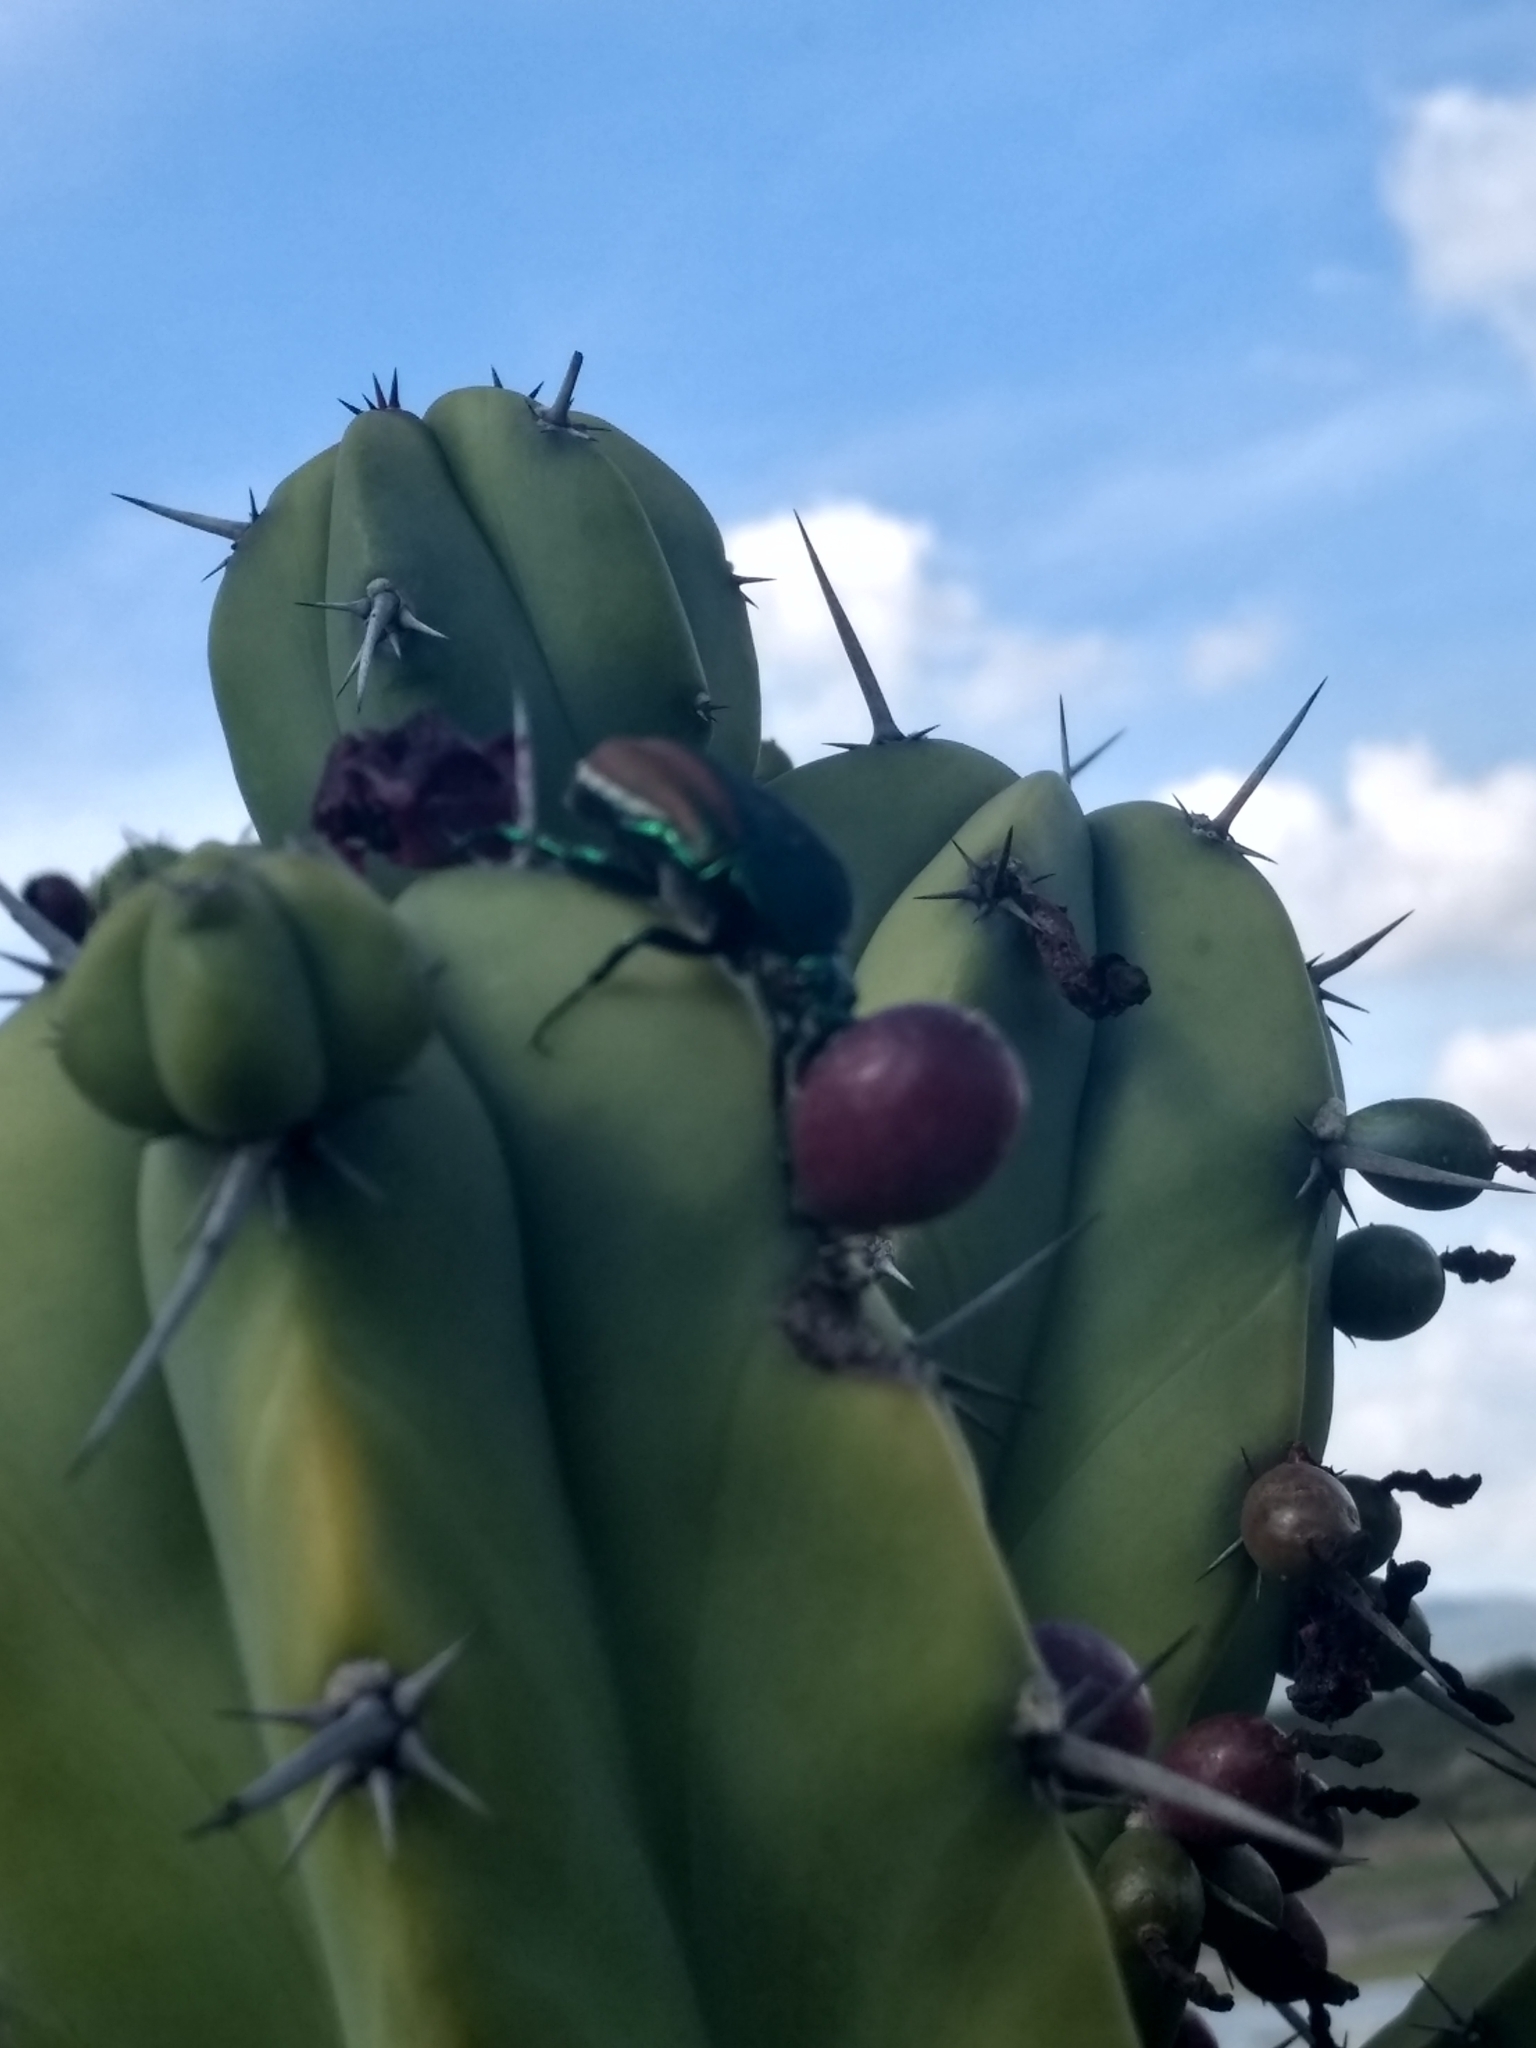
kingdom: Animalia
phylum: Arthropoda
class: Insecta
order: Coleoptera
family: Scarabaeidae
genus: Cotinis
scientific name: Cotinis mutabilis
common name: Figeater beetle
